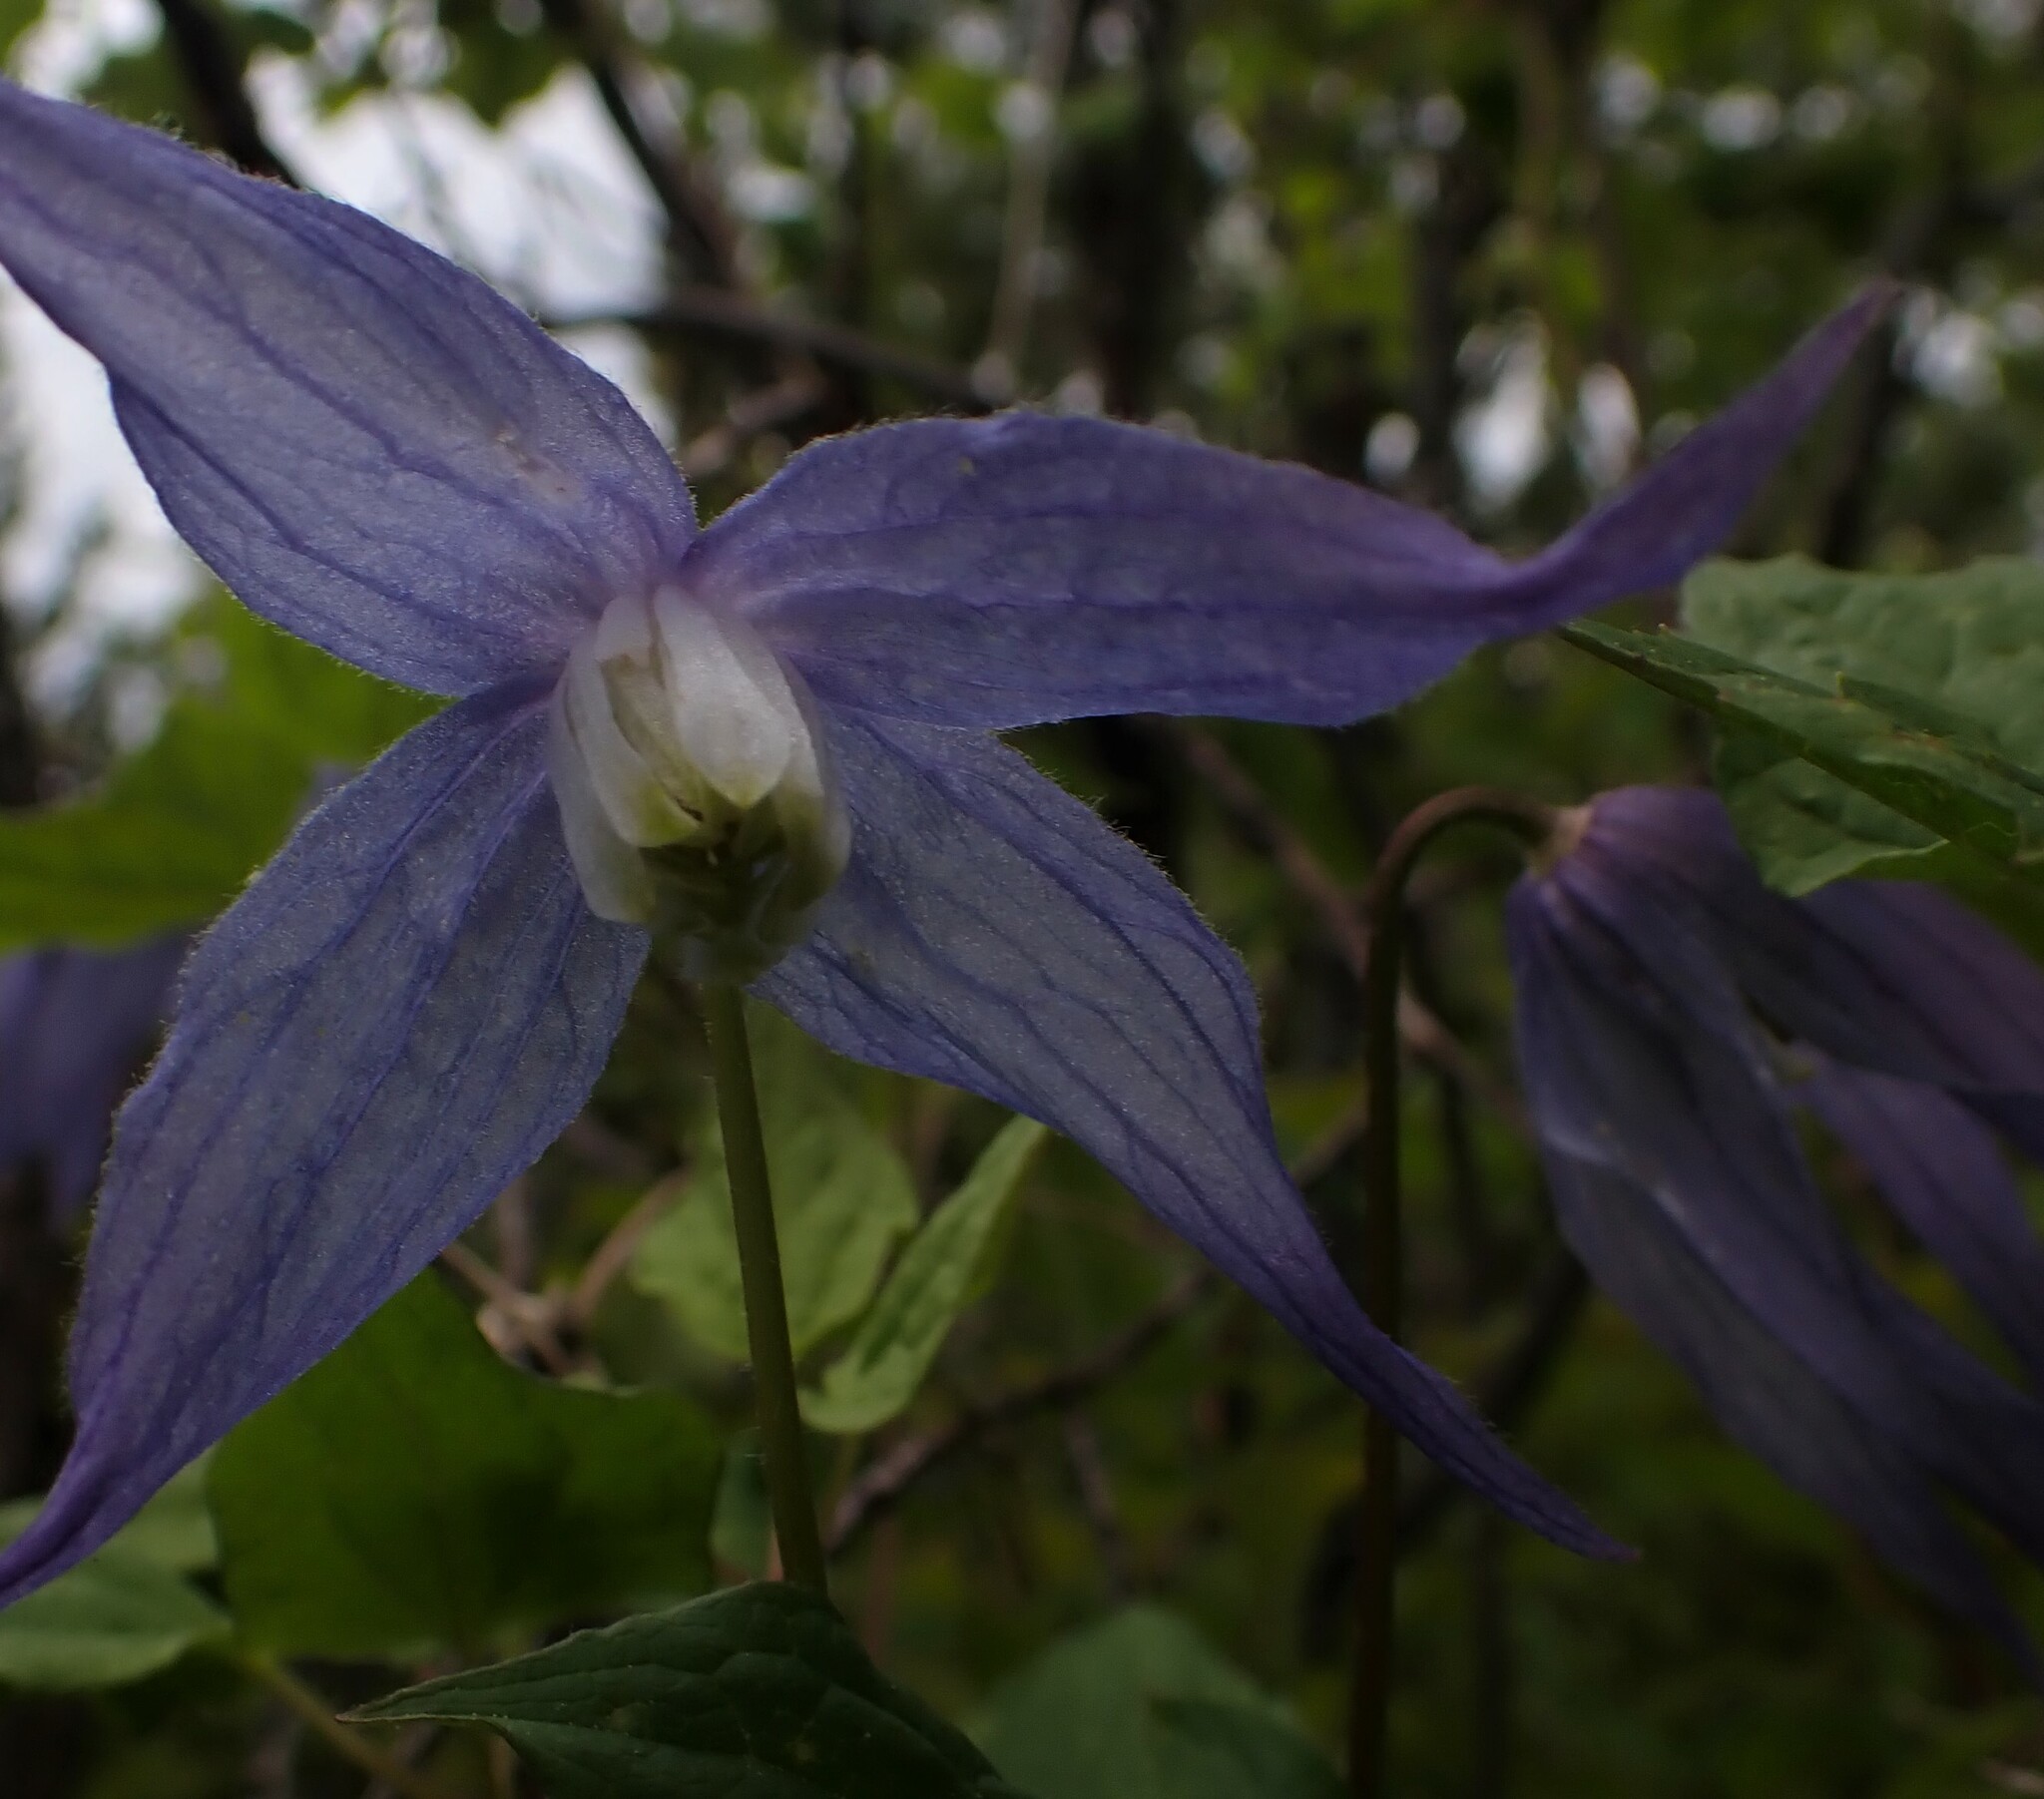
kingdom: Plantae
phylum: Tracheophyta
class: Magnoliopsida
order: Ranunculales
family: Ranunculaceae
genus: Clematis
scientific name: Clematis occidentalis
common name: Purple clematis
